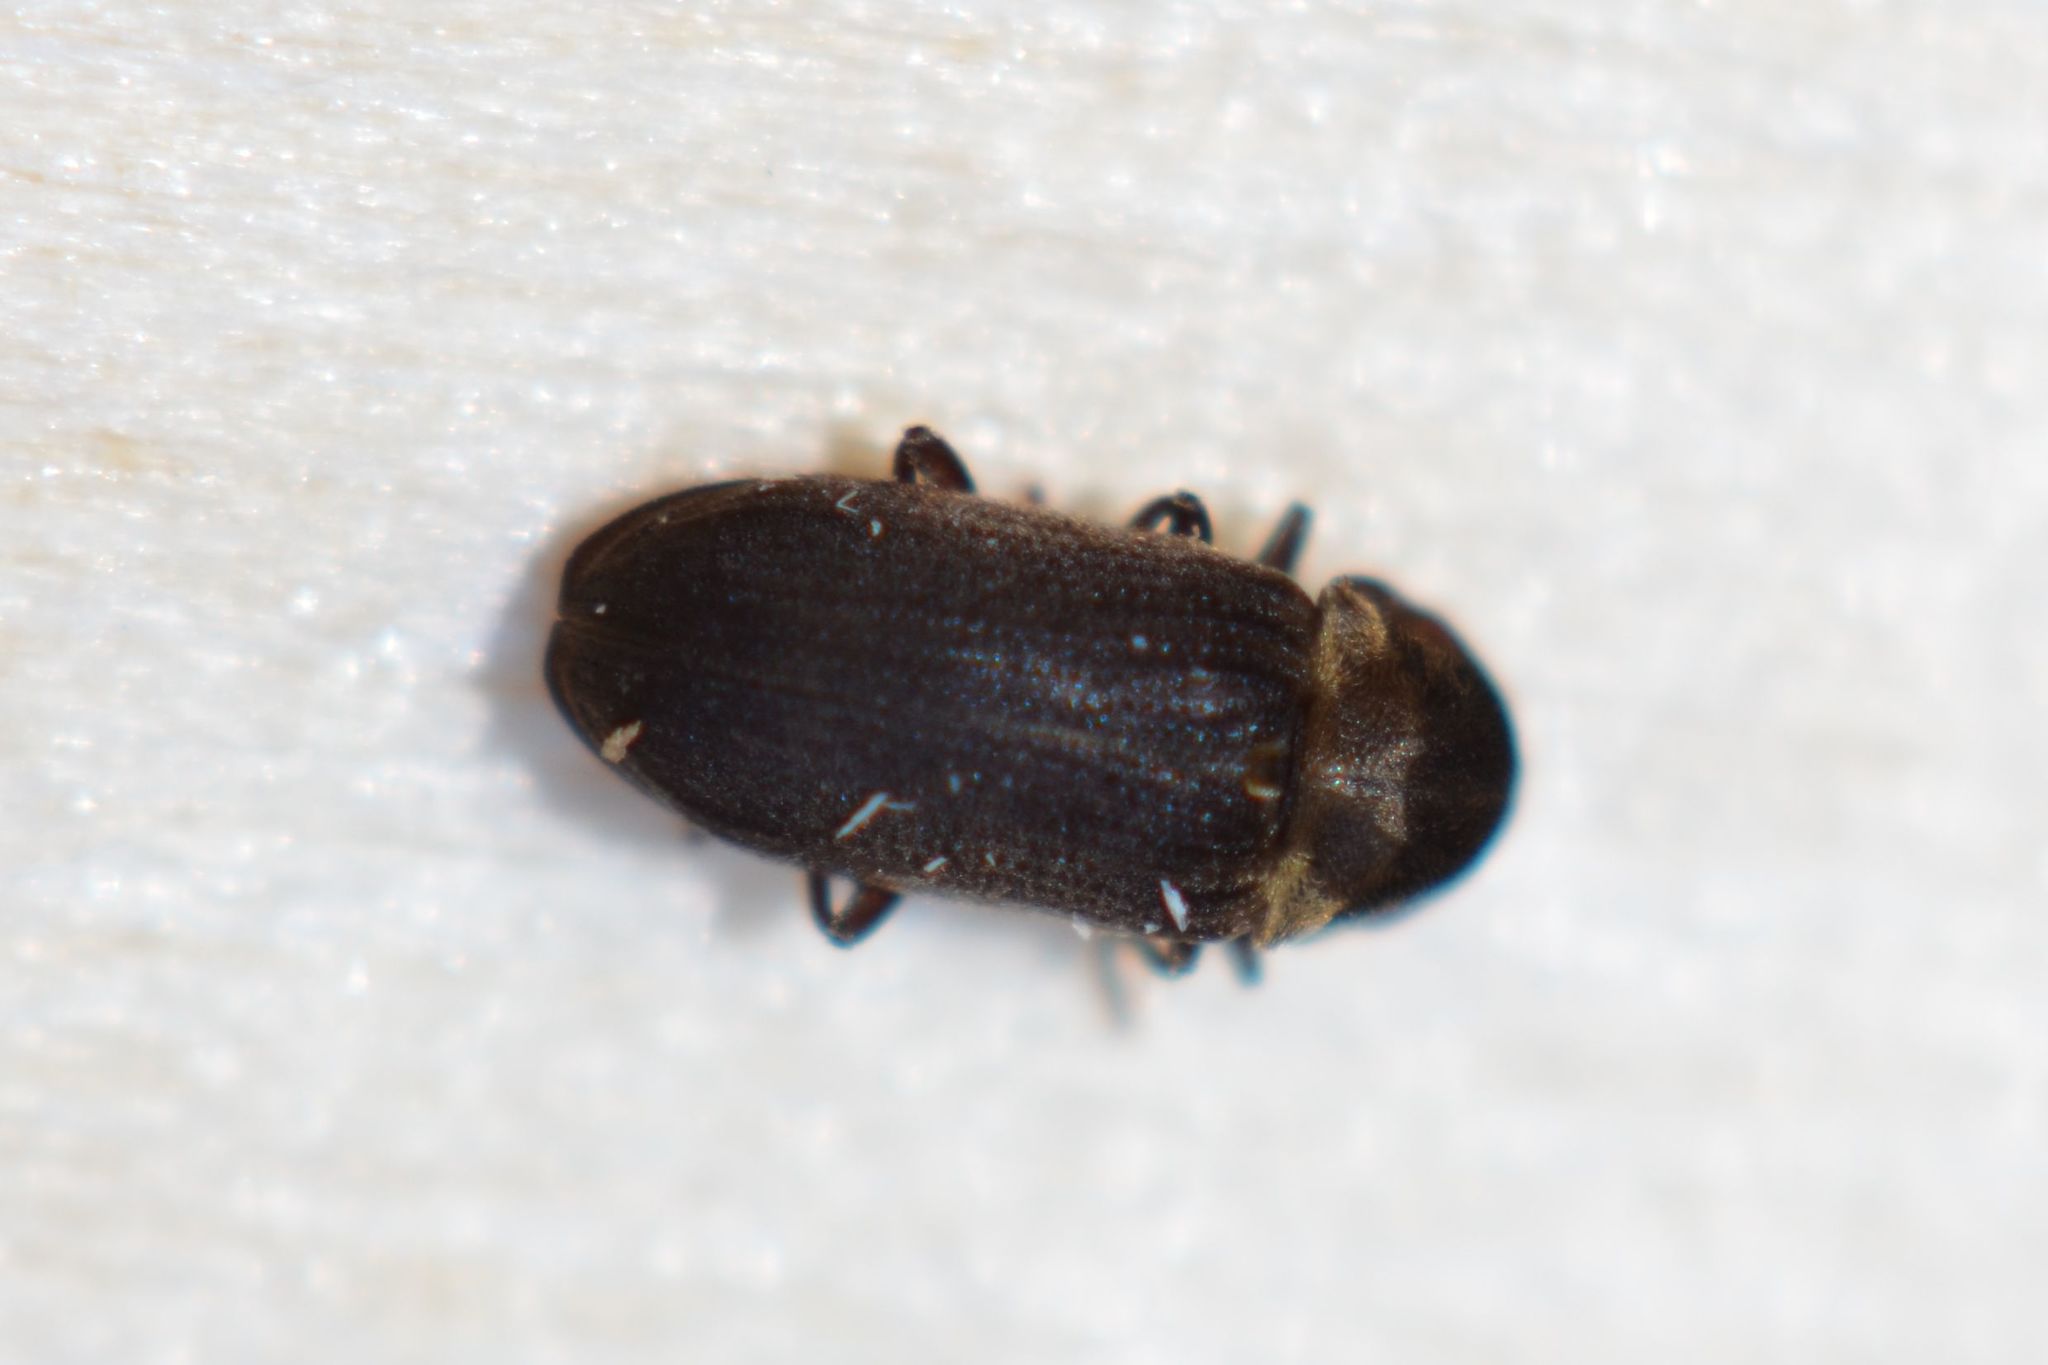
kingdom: Animalia
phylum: Arthropoda
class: Insecta
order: Coleoptera
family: Anobiidae
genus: Hadrobregmus
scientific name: Hadrobregmus denticollis
